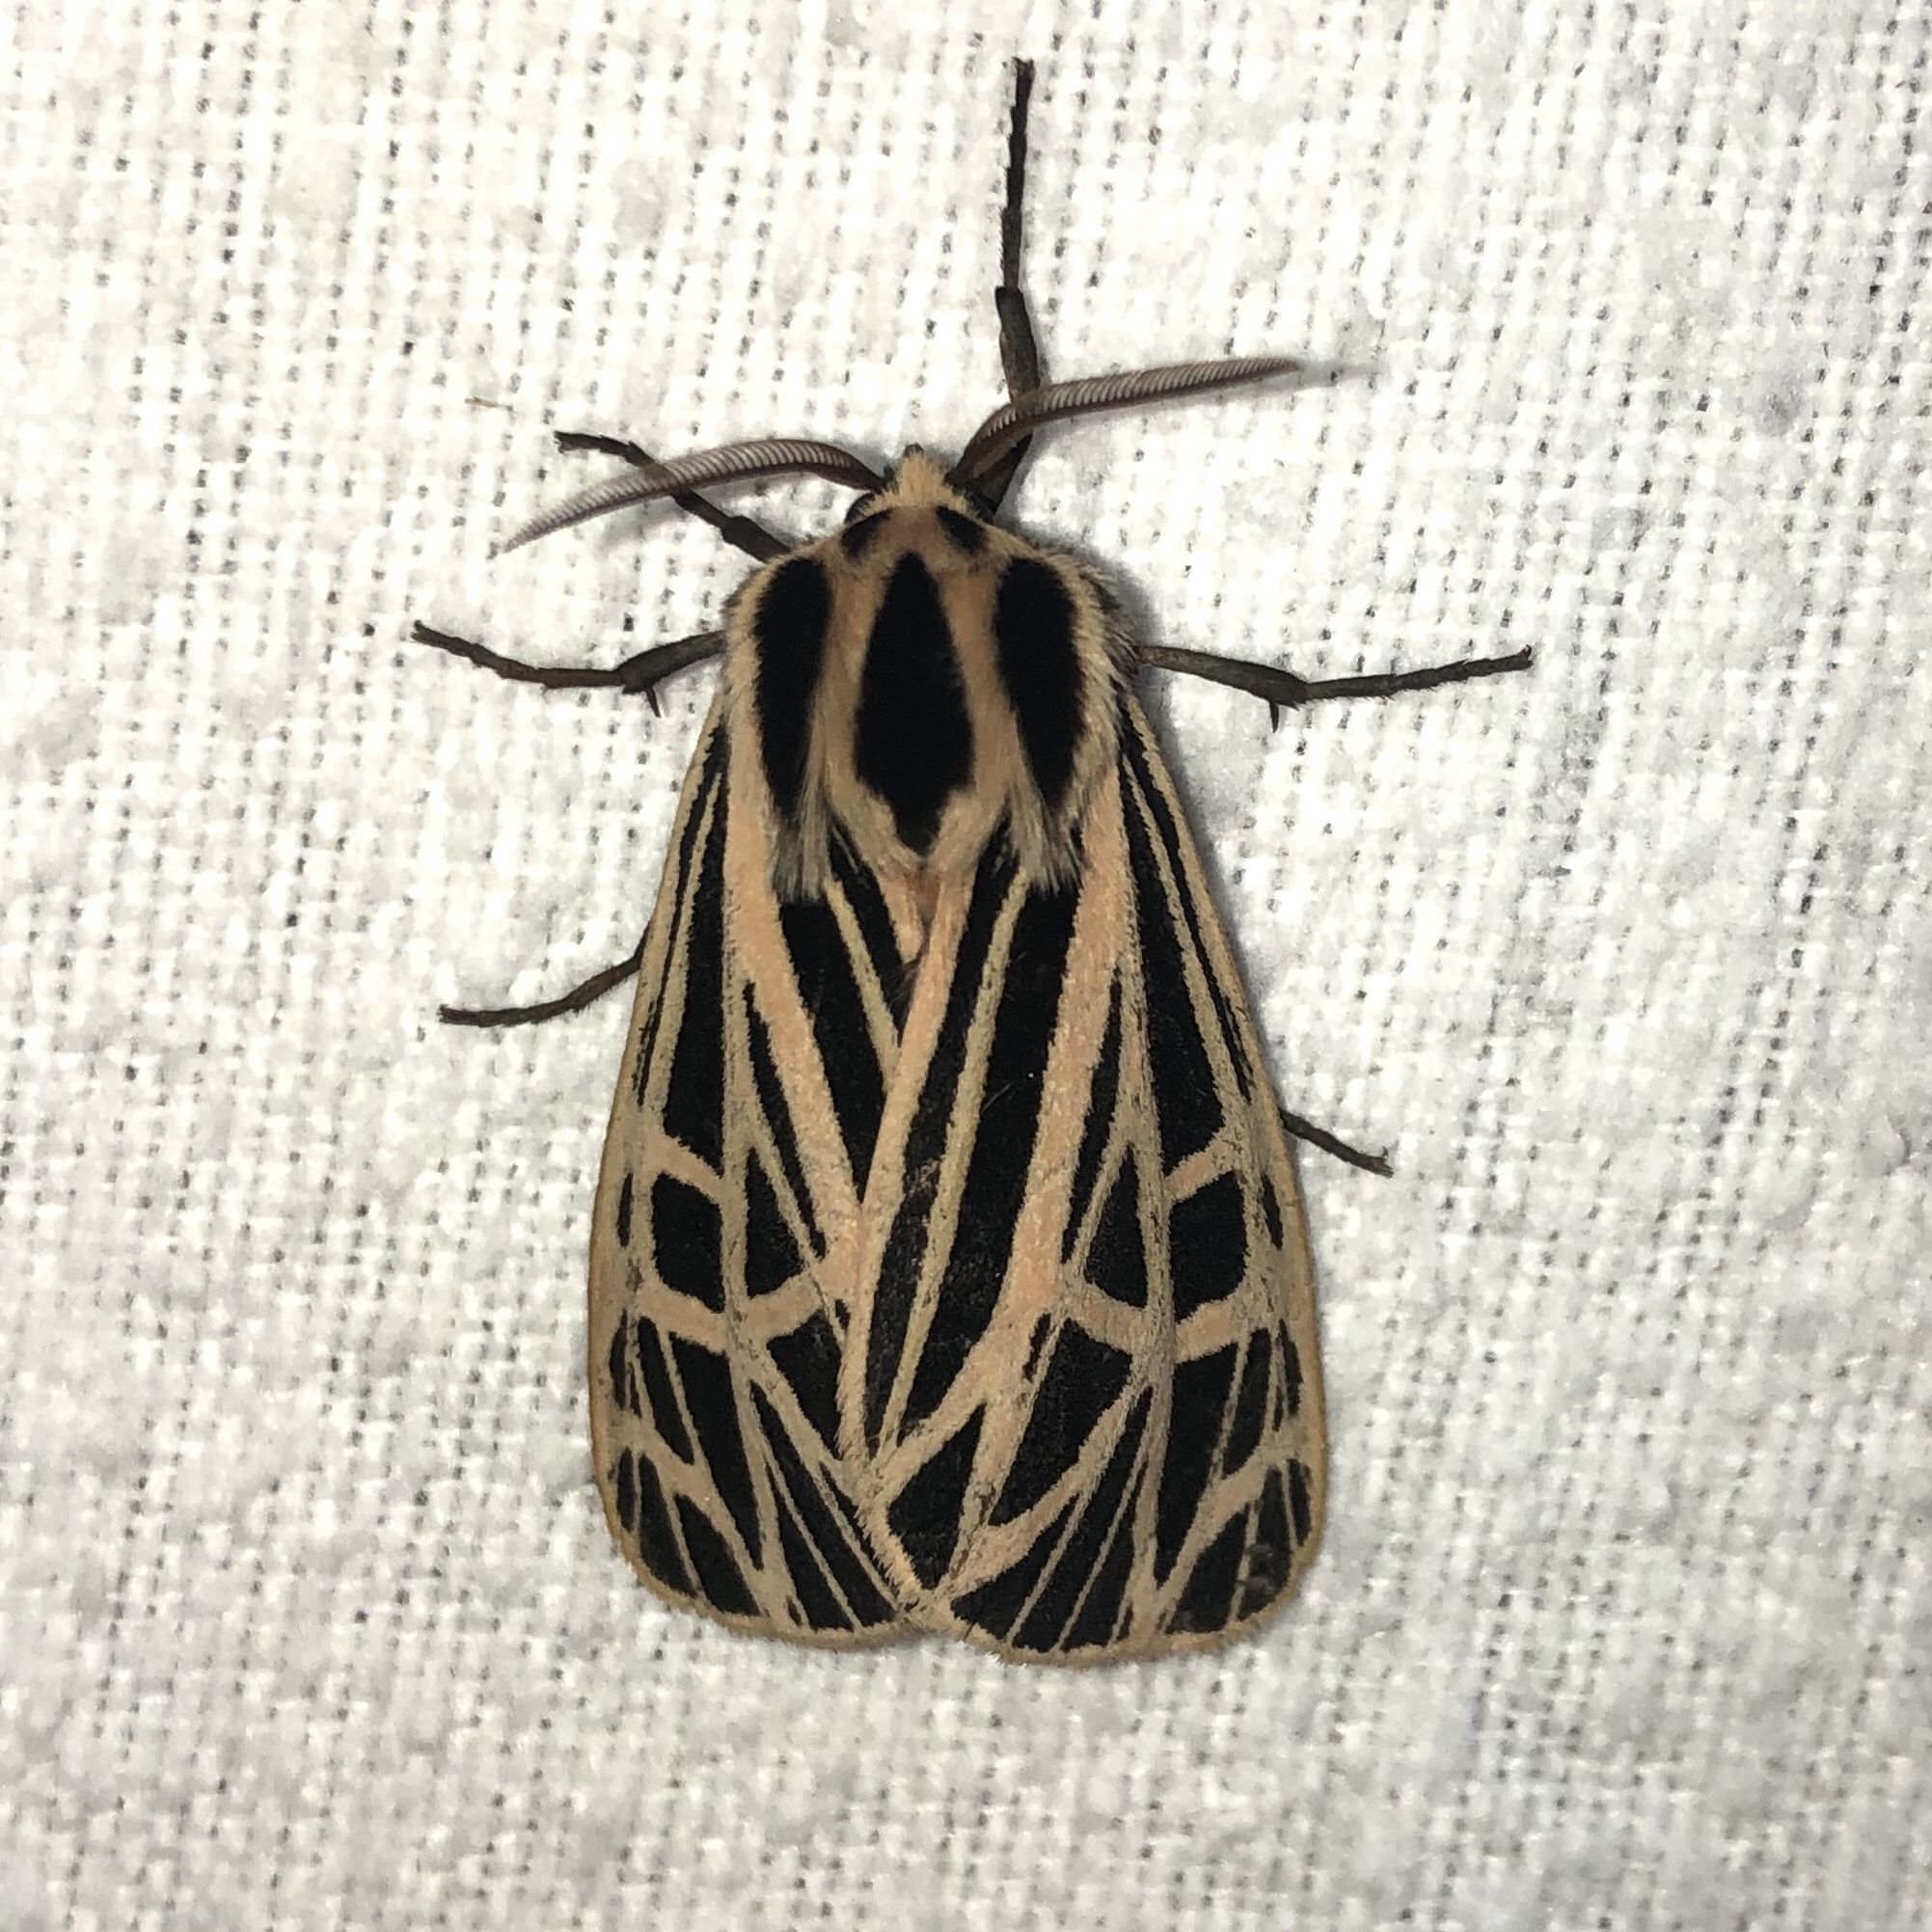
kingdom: Animalia
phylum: Arthropoda
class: Insecta
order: Lepidoptera
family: Erebidae
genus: Grammia
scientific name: Grammia virgo
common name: Virgin tiger moth
